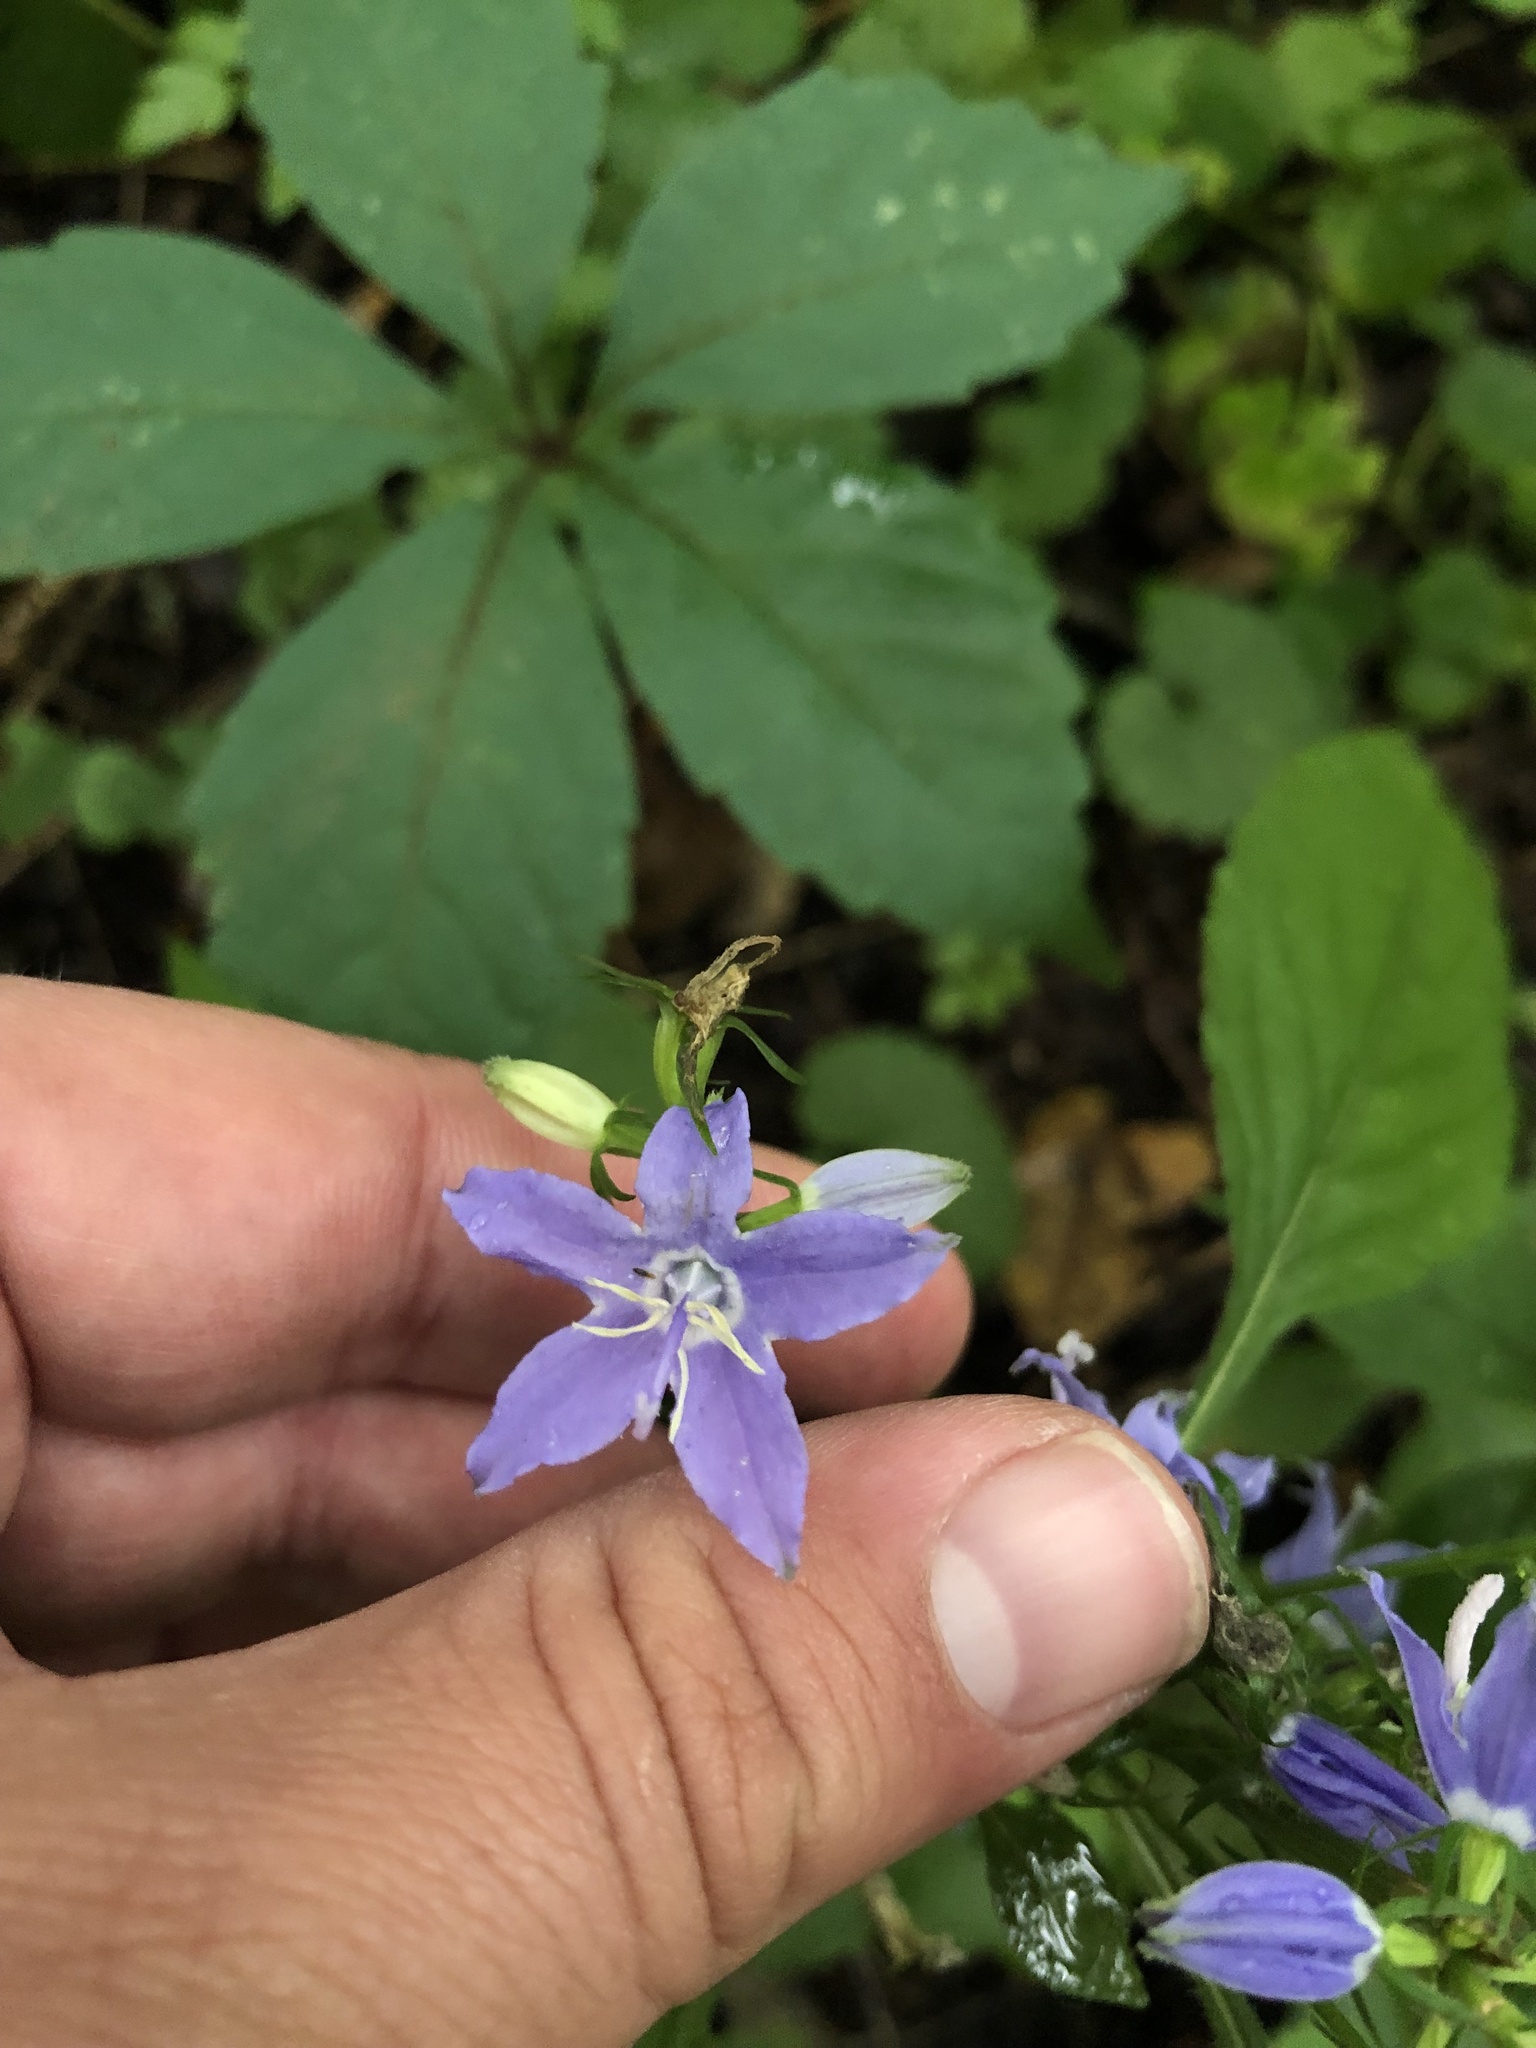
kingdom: Plantae
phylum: Tracheophyta
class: Magnoliopsida
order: Asterales
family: Campanulaceae
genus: Campanulastrum
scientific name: Campanulastrum americanum
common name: American bellflower
